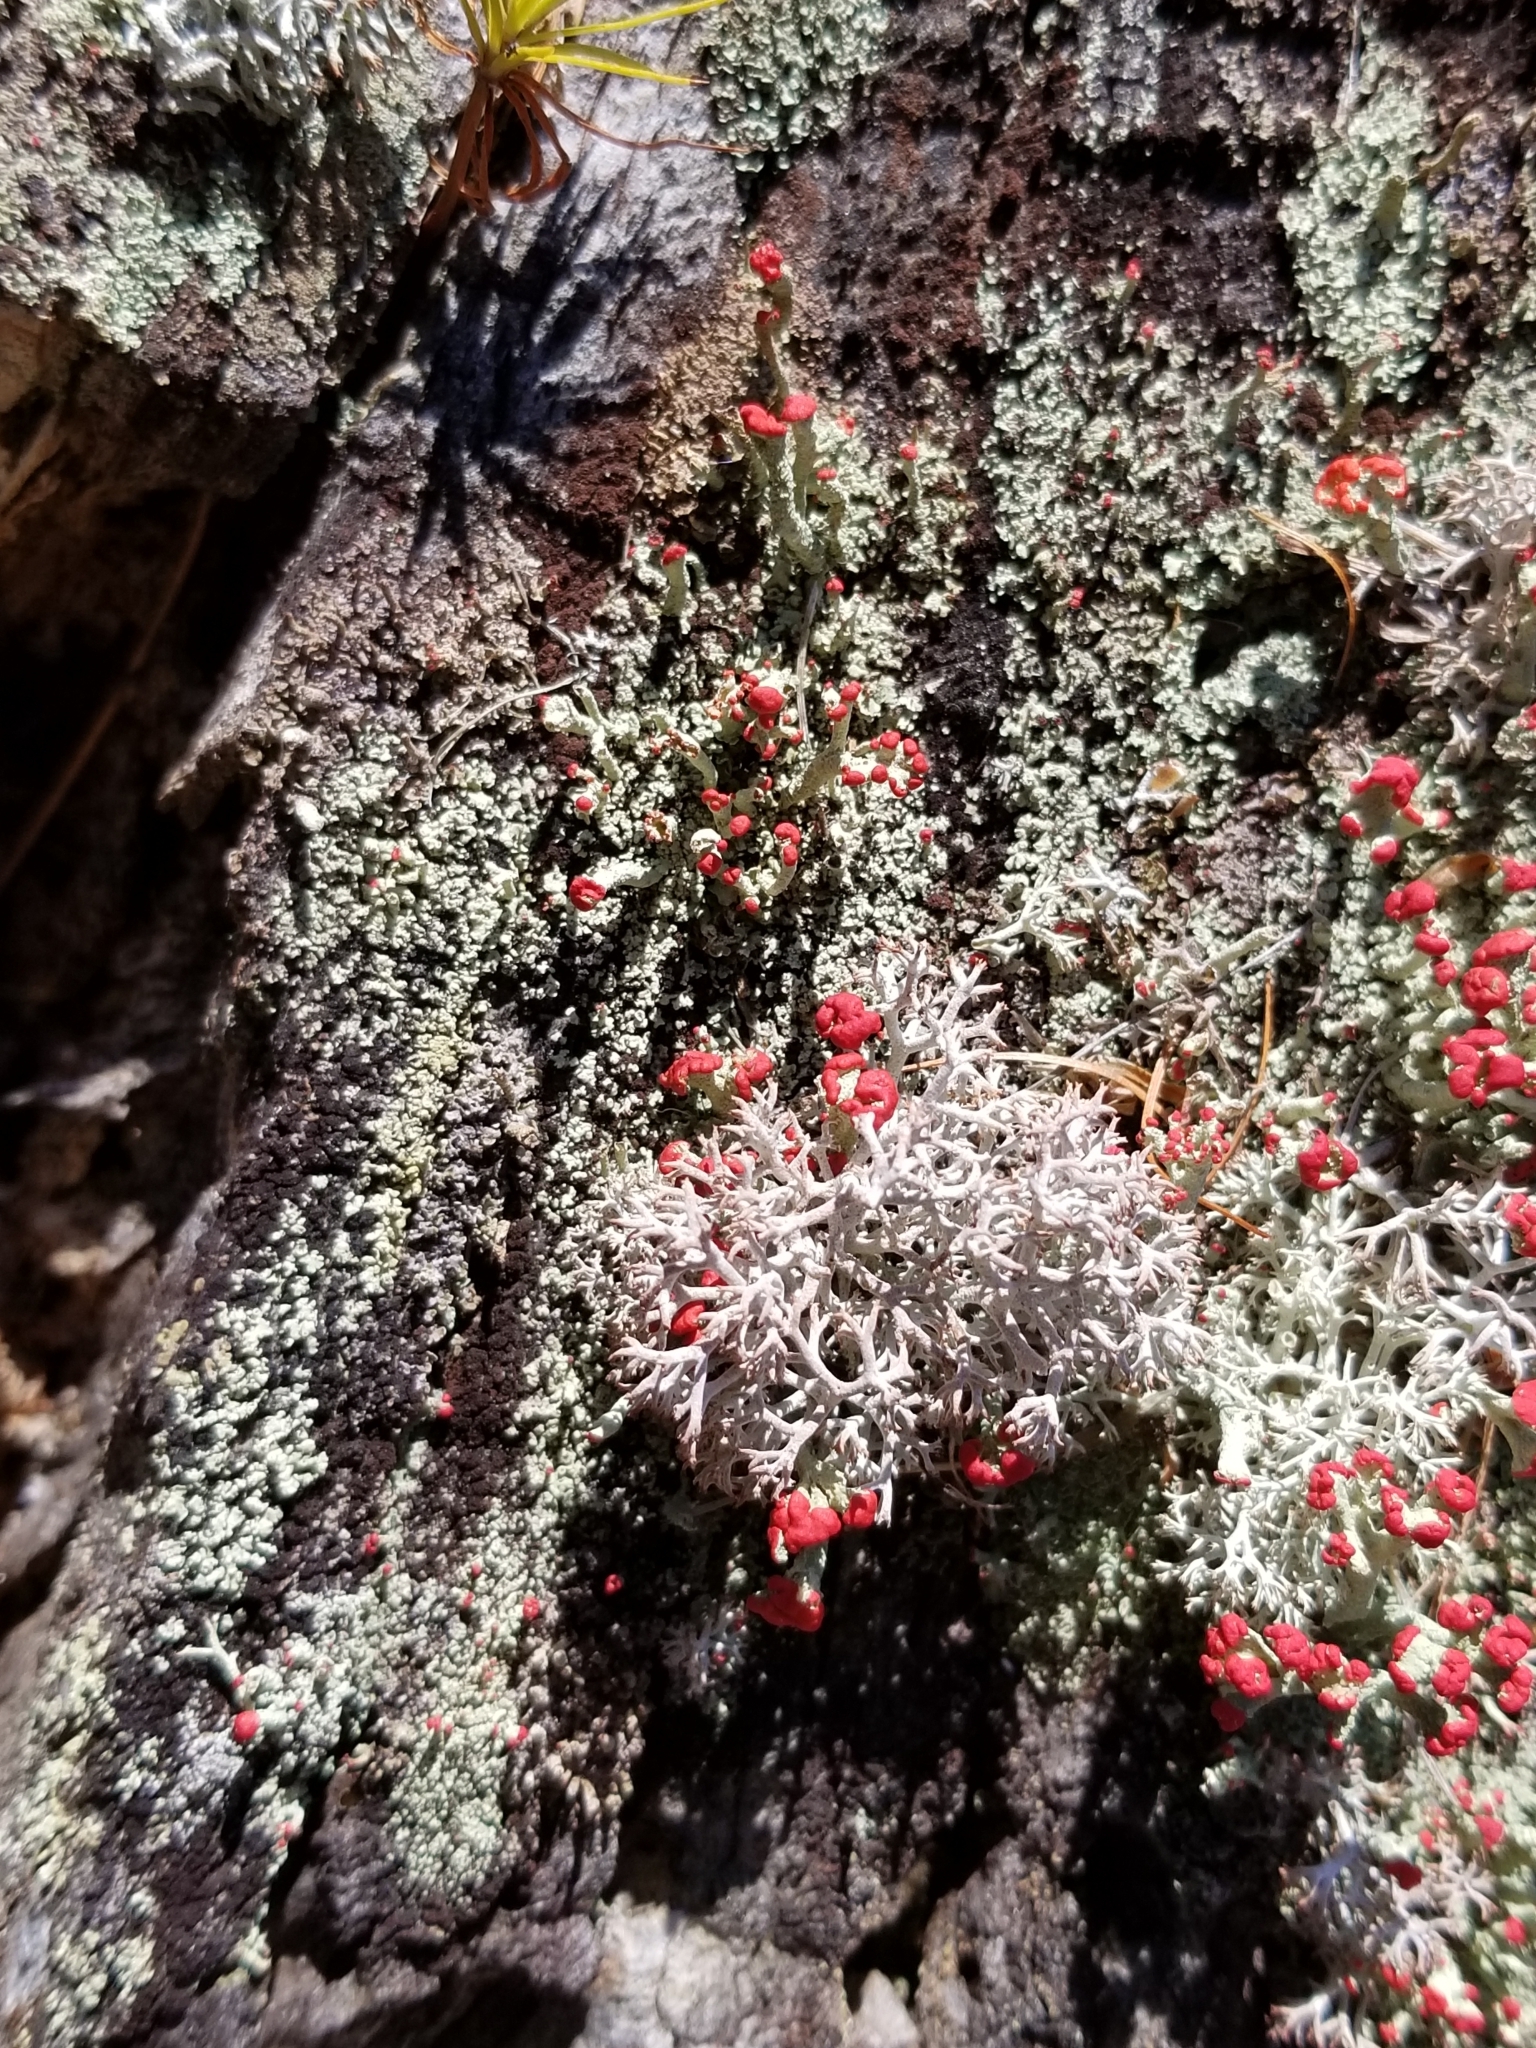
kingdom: Fungi
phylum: Ascomycota
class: Lecanoromycetes
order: Lecanorales
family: Cladoniaceae
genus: Cladonia
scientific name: Cladonia cristatella
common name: British soldier lichen
